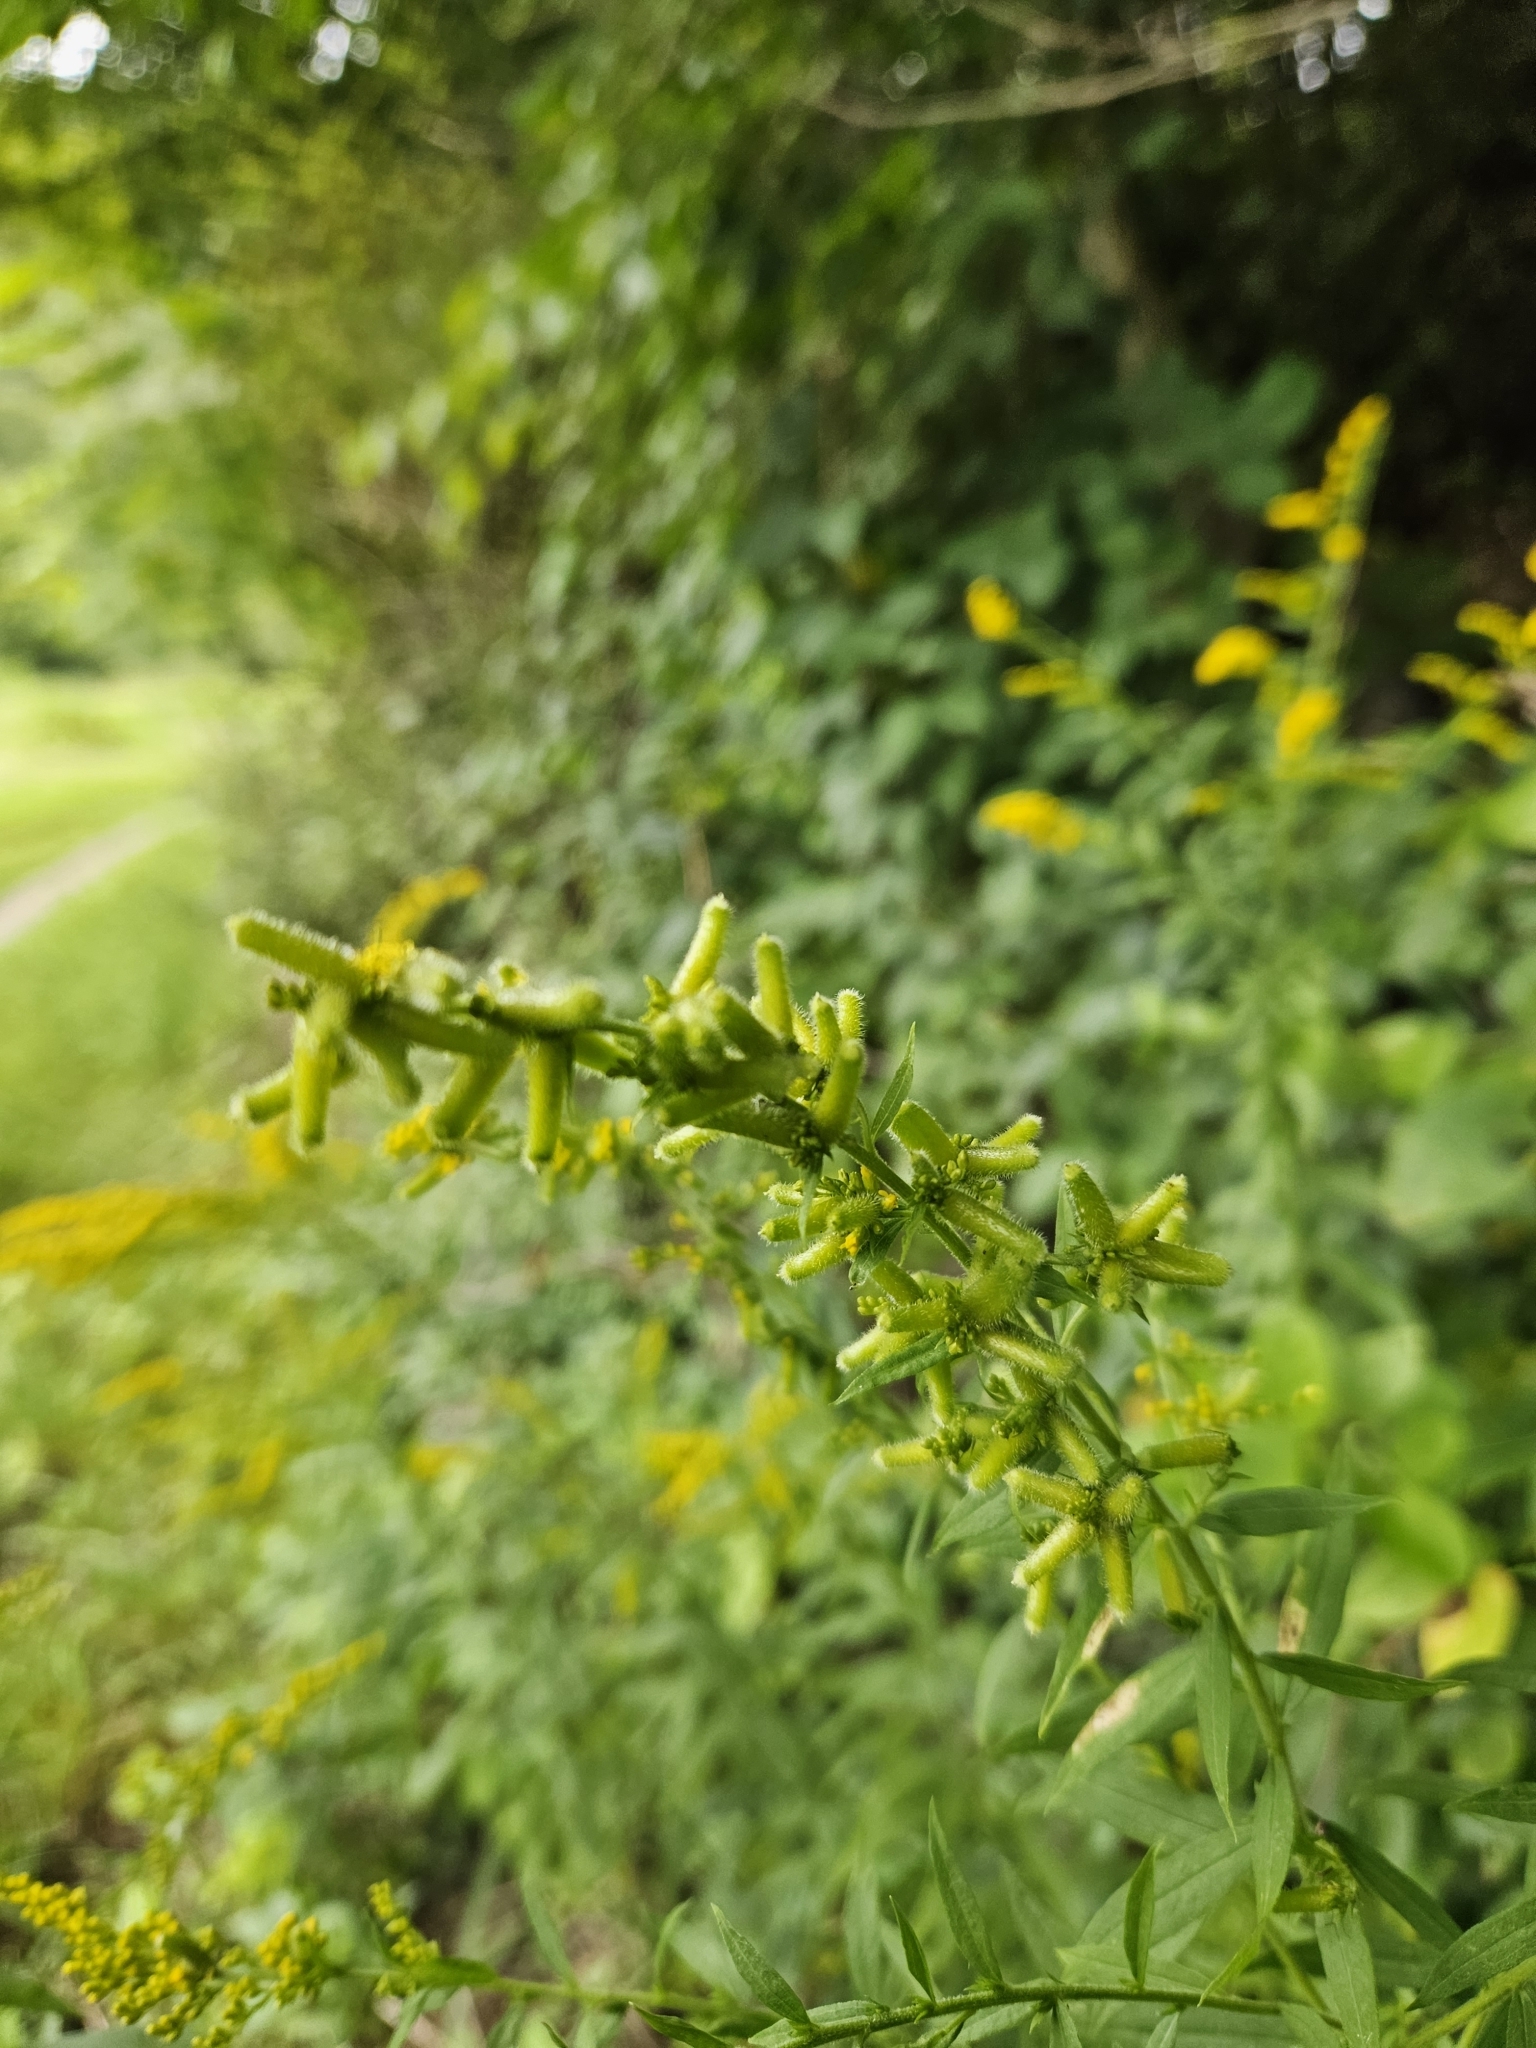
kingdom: Animalia
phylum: Arthropoda
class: Insecta
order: Diptera
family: Cecidomyiidae
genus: Rhopalomyia
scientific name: Rhopalomyia anthophila
